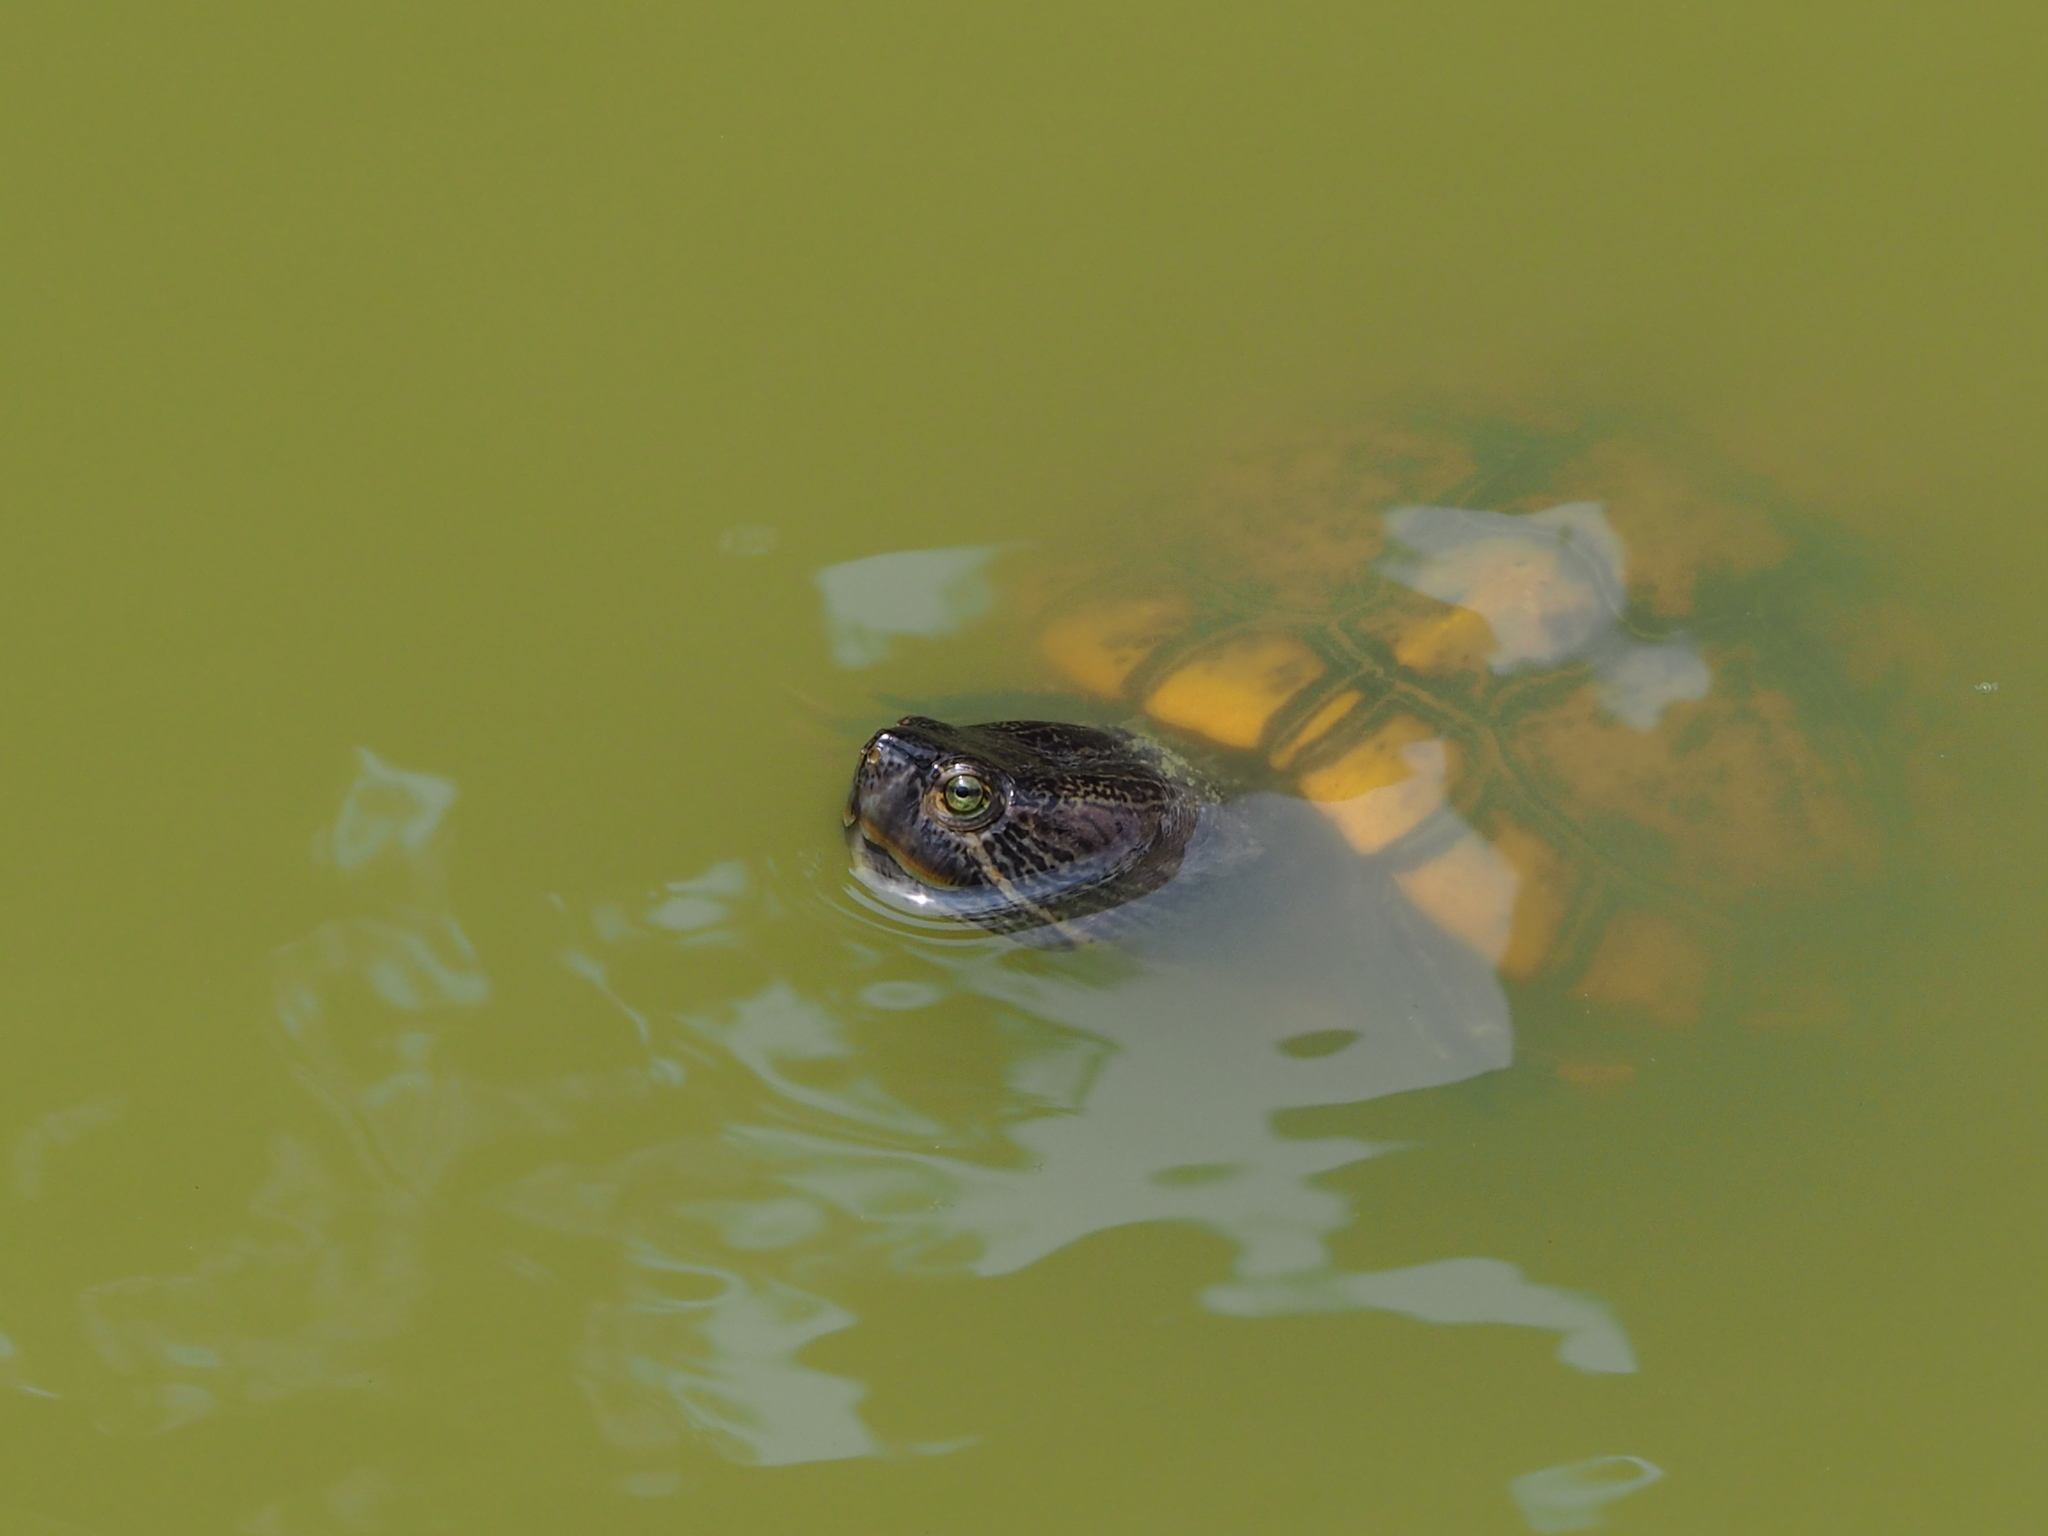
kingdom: Animalia
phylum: Chordata
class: Testudines
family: Emydidae
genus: Trachemys
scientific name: Trachemys scripta
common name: Slider
